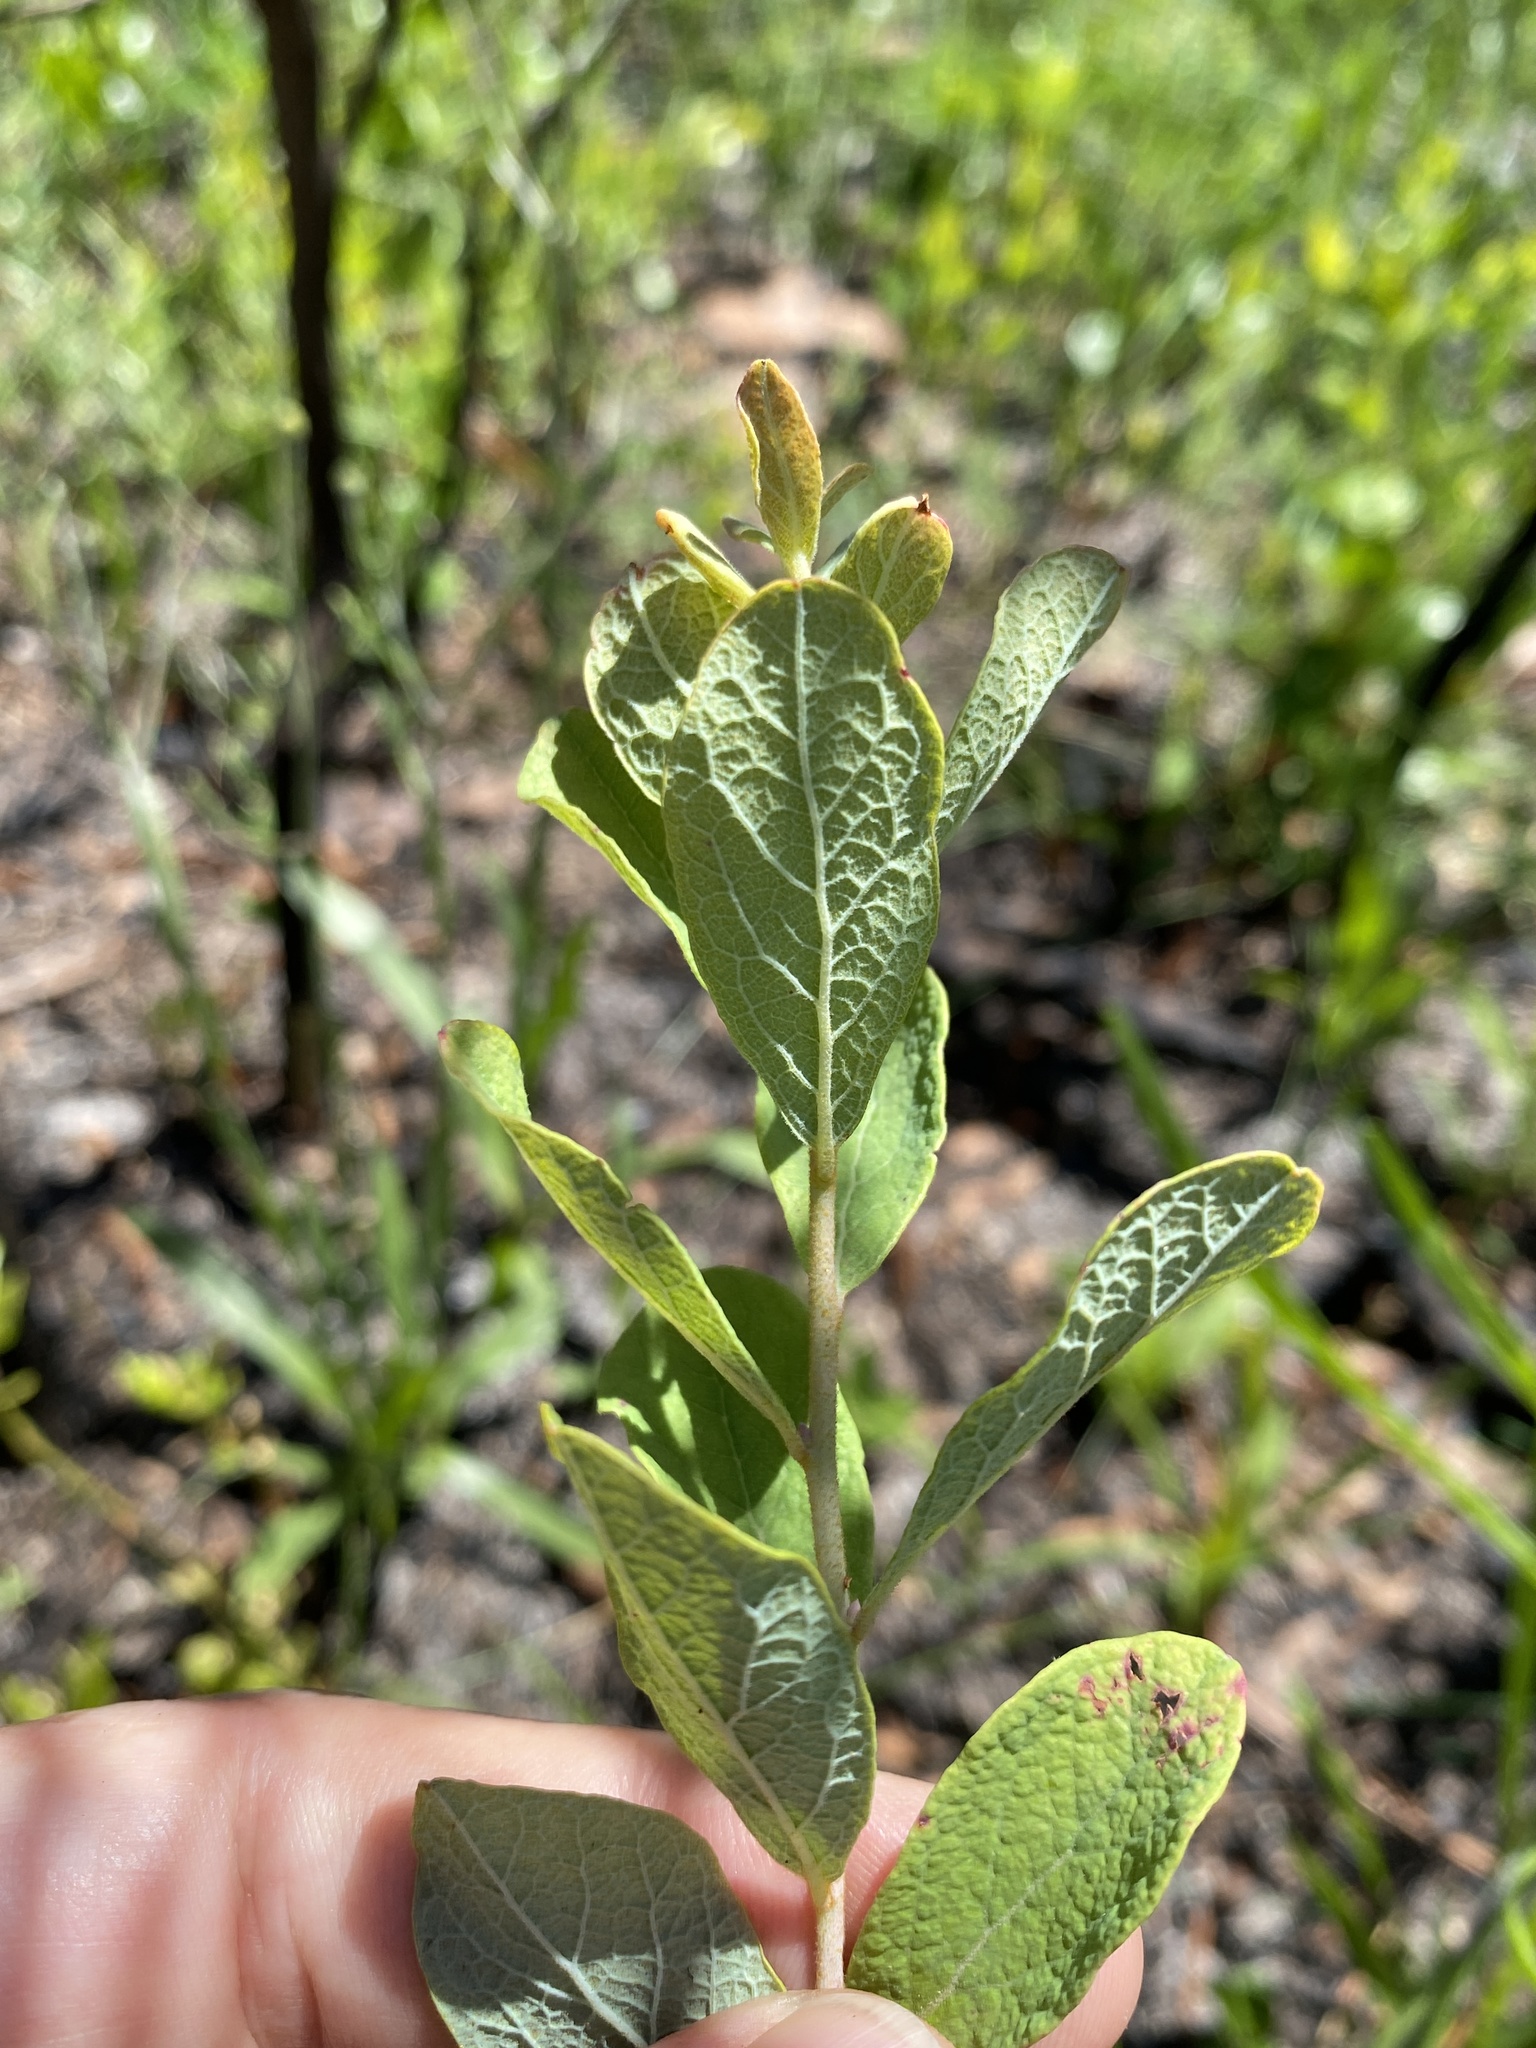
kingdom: Plantae
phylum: Tracheophyta
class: Magnoliopsida
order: Ericales
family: Ericaceae
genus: Gaylussacia
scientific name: Gaylussacia tomentosa
